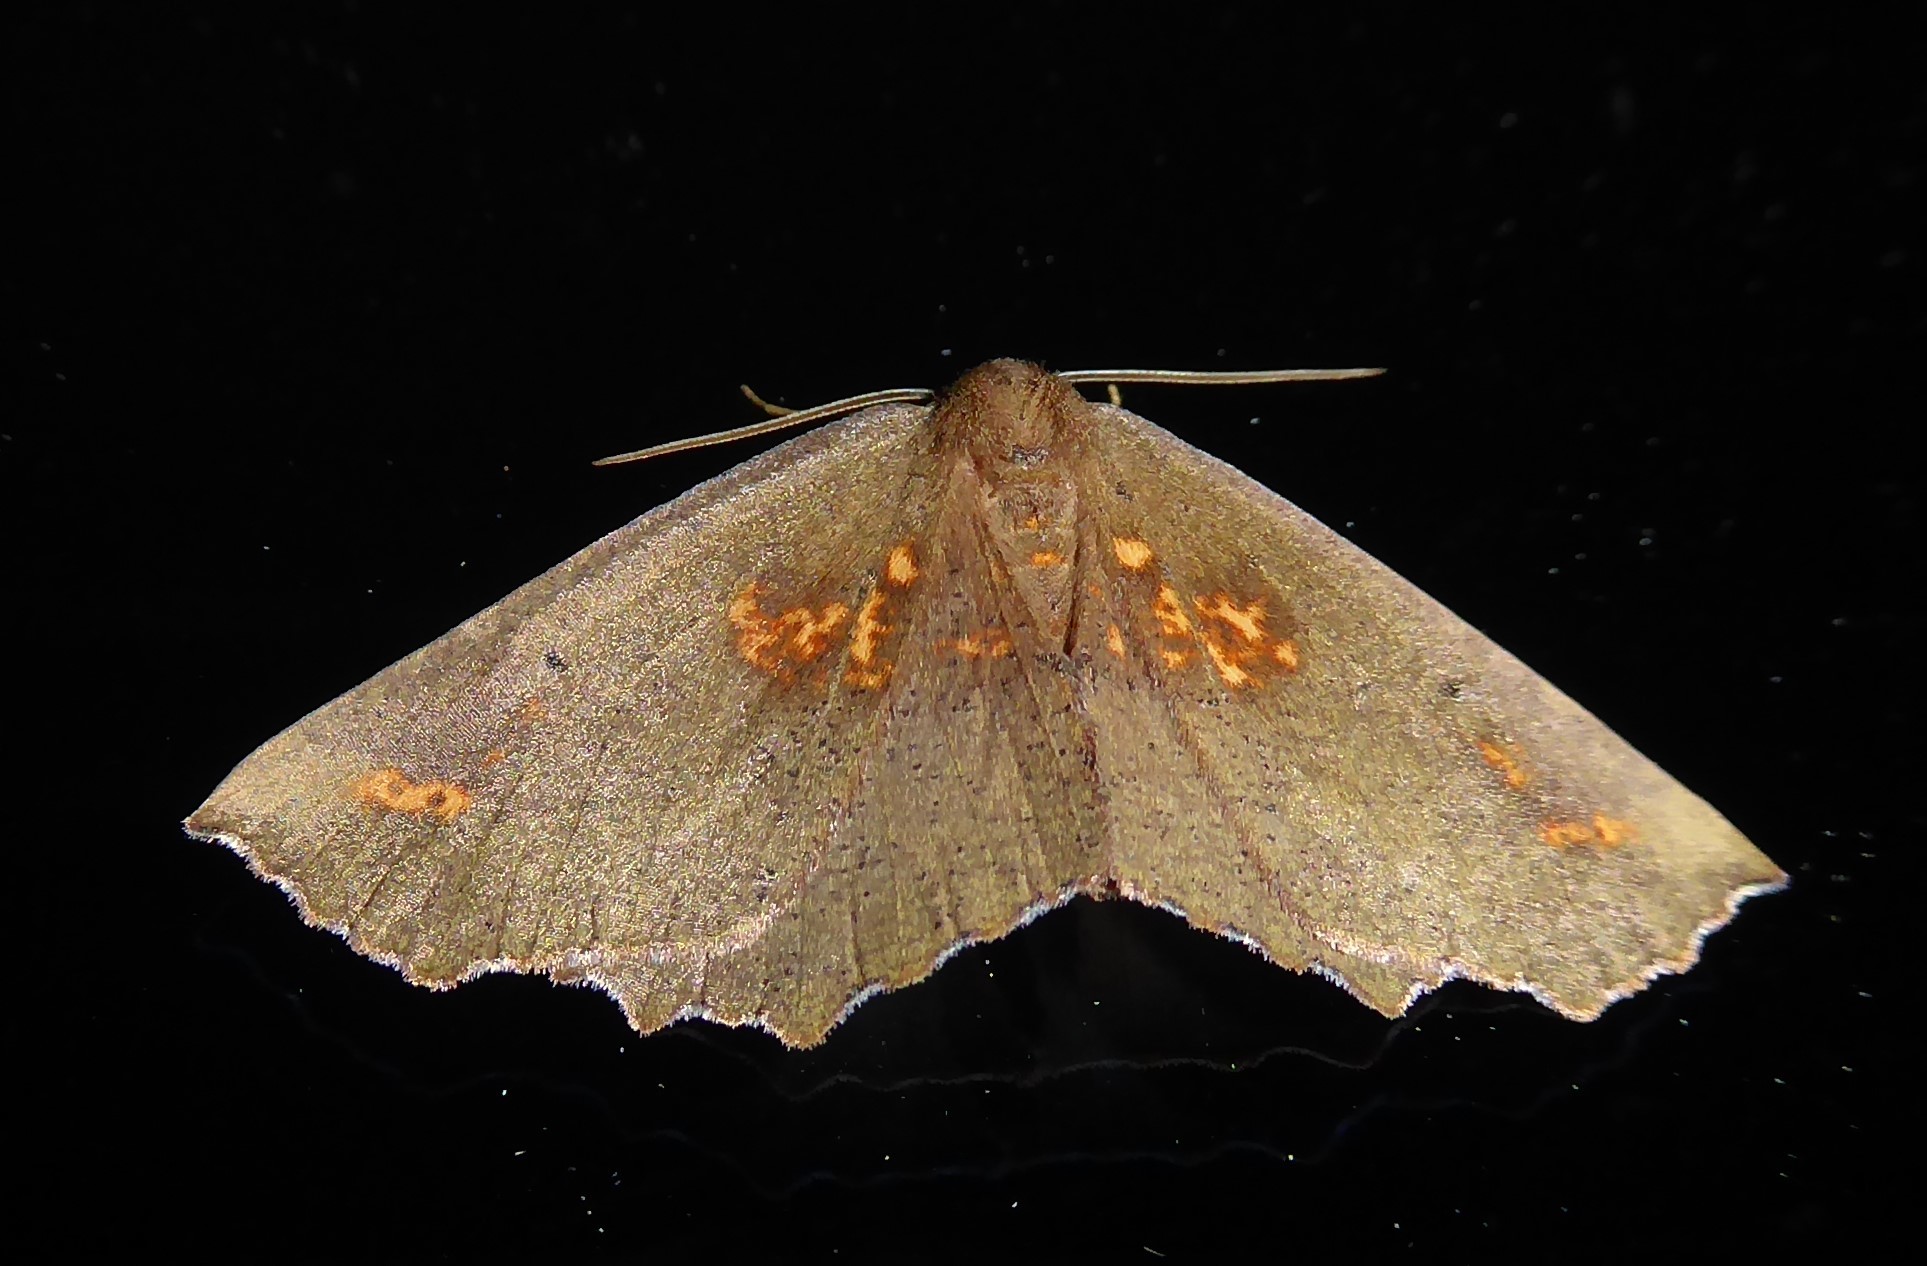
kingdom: Animalia
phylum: Arthropoda
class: Insecta
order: Lepidoptera
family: Geometridae
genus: Xyridacma
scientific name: Xyridacma ustaria
